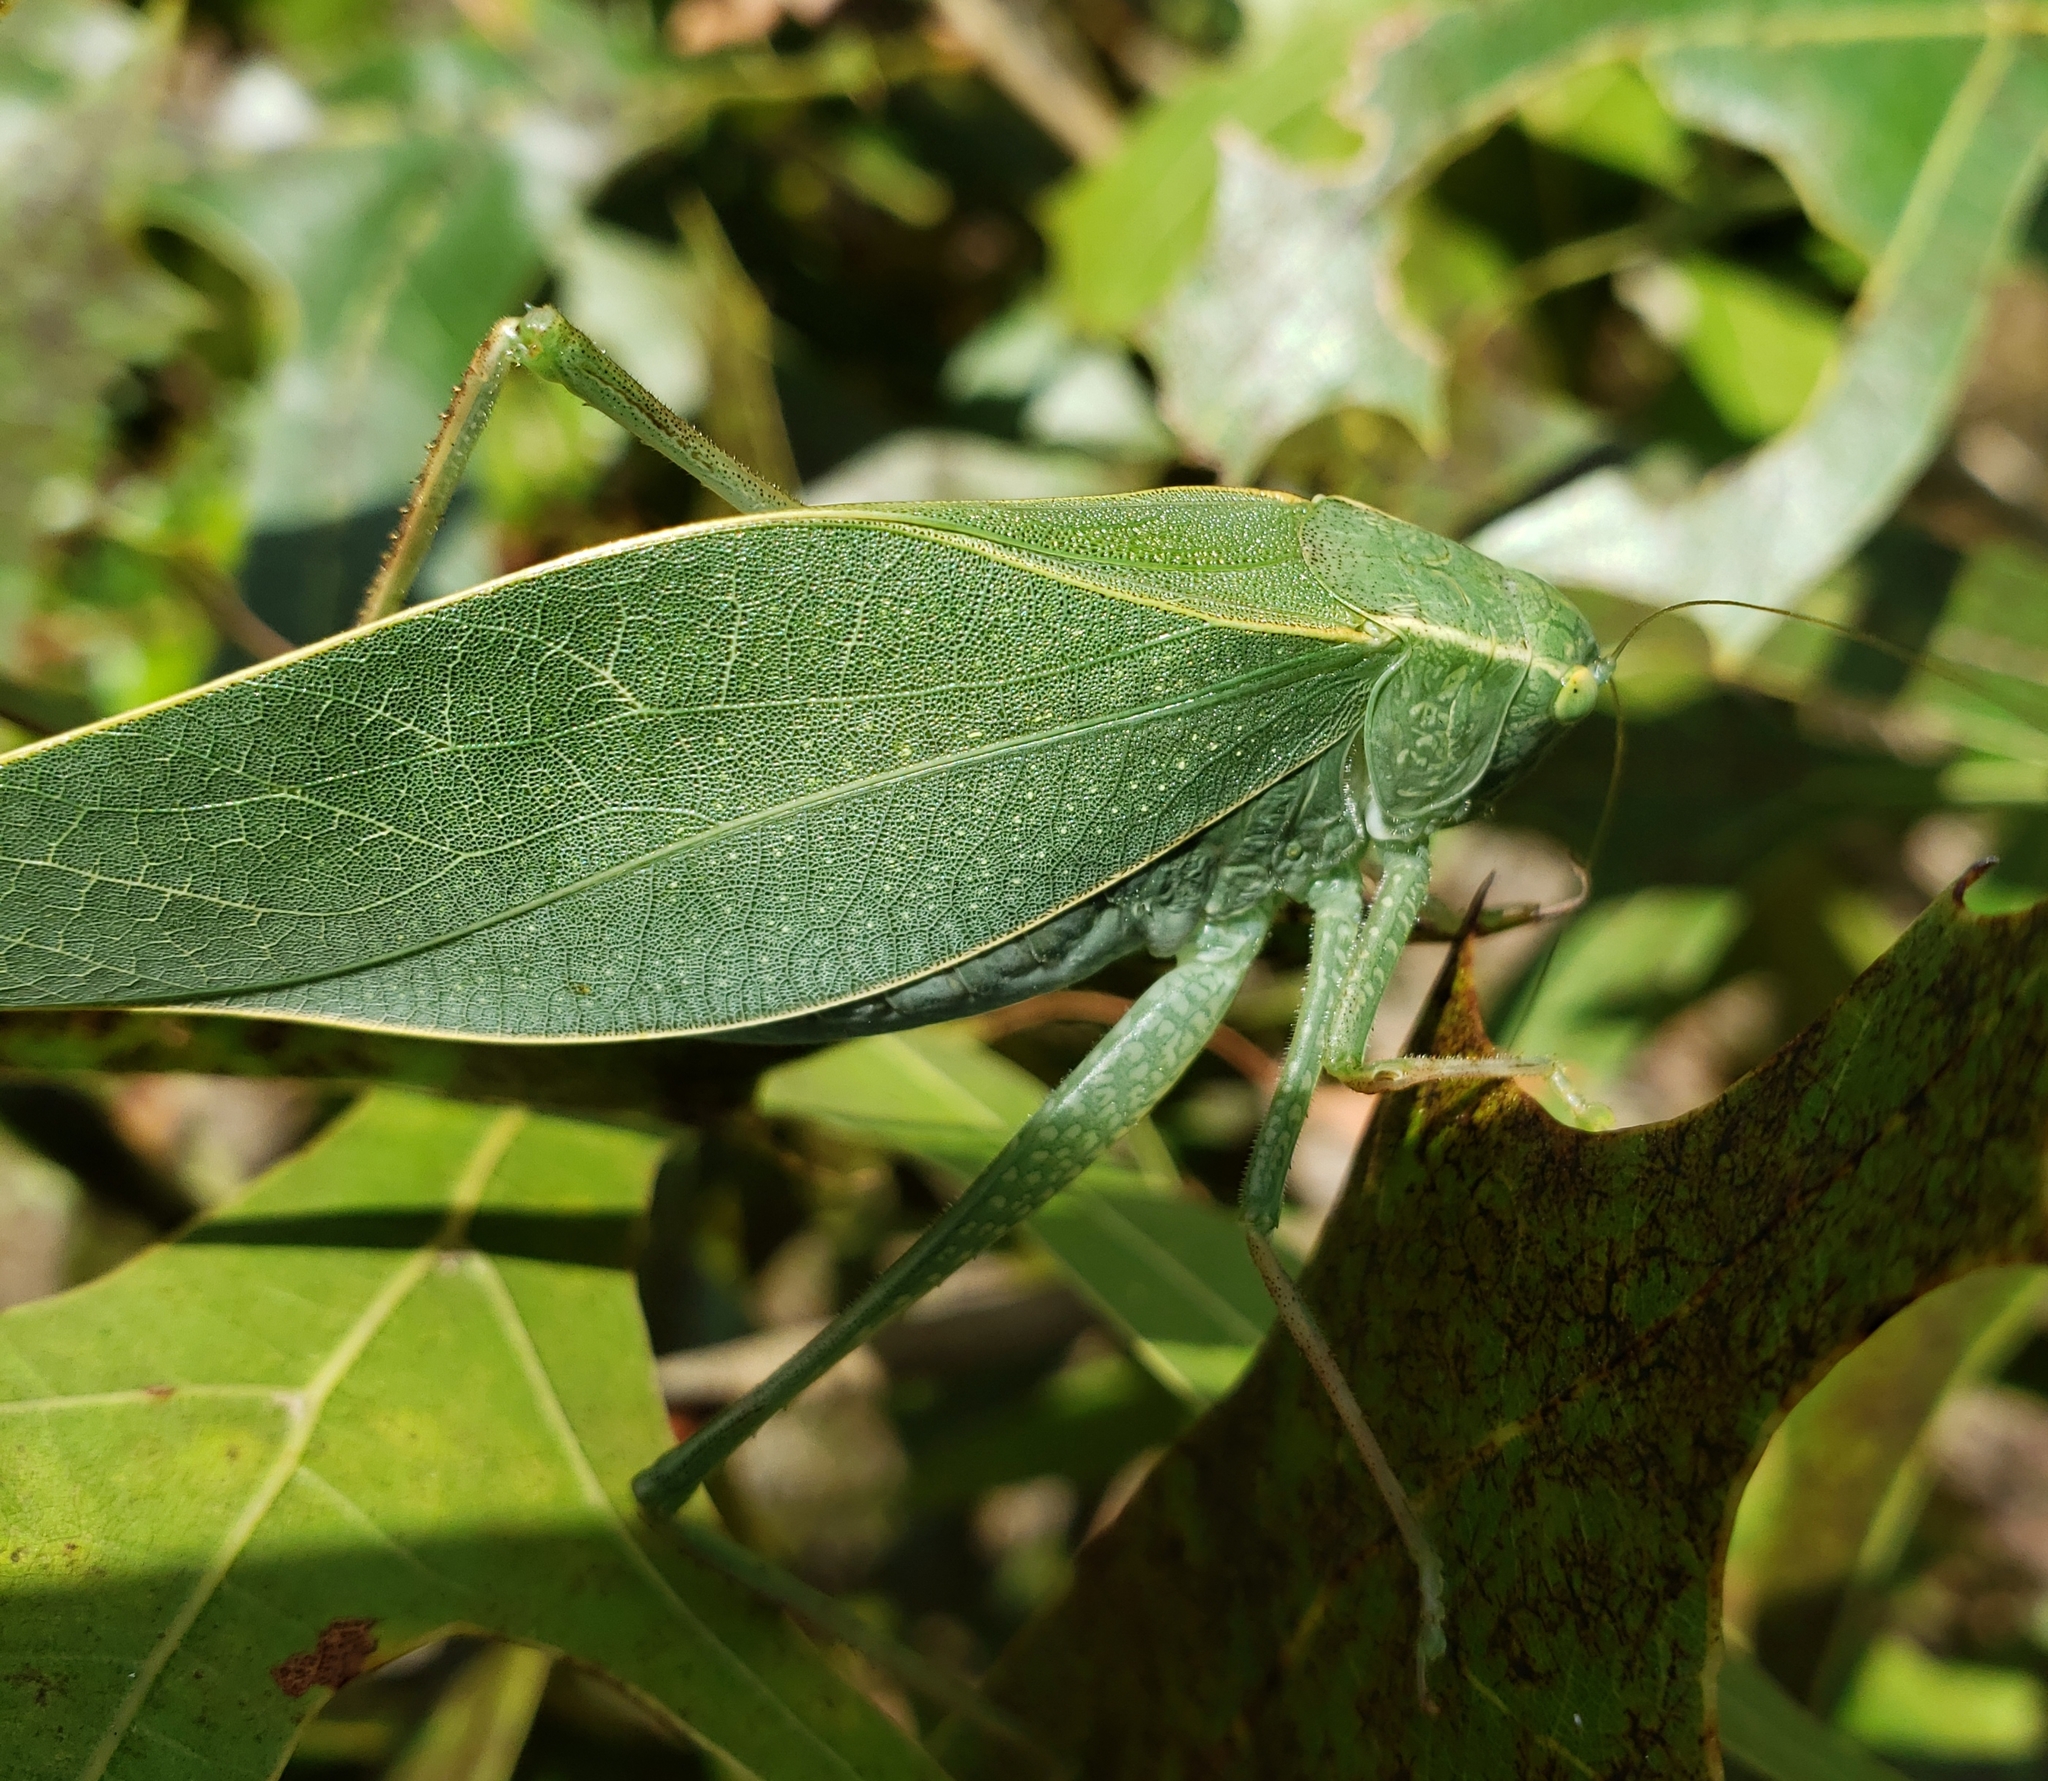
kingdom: Animalia
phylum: Arthropoda
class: Insecta
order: Orthoptera
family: Tettigoniidae
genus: Microcentrum
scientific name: Microcentrum rhombifolium
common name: Broad-winged katydid
